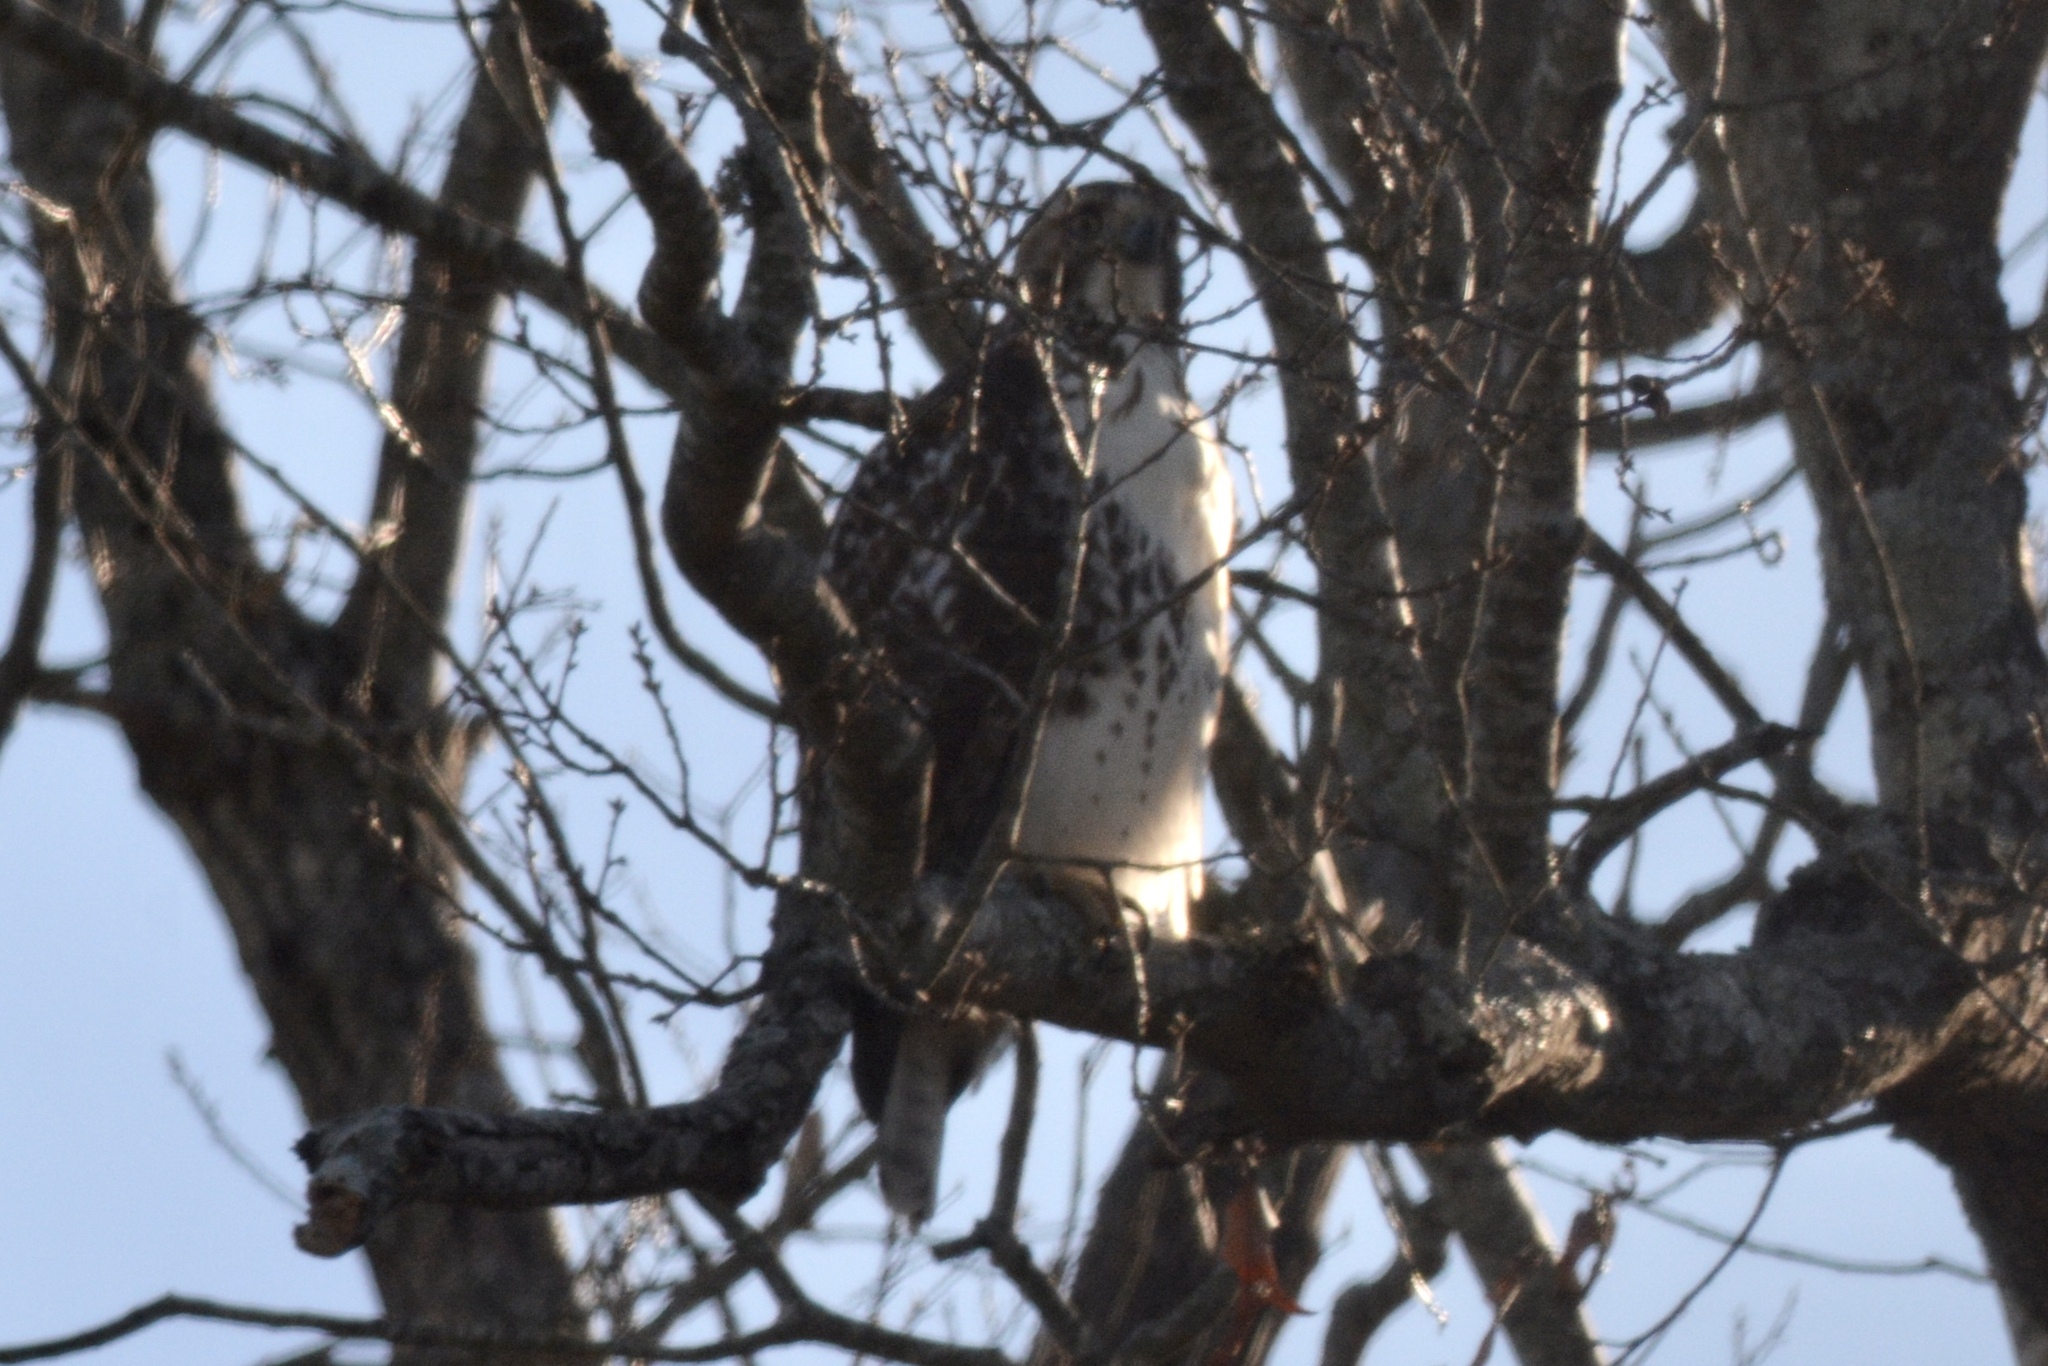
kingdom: Animalia
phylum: Chordata
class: Aves
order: Accipitriformes
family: Accipitridae
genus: Buteo
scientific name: Buteo jamaicensis
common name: Red-tailed hawk
